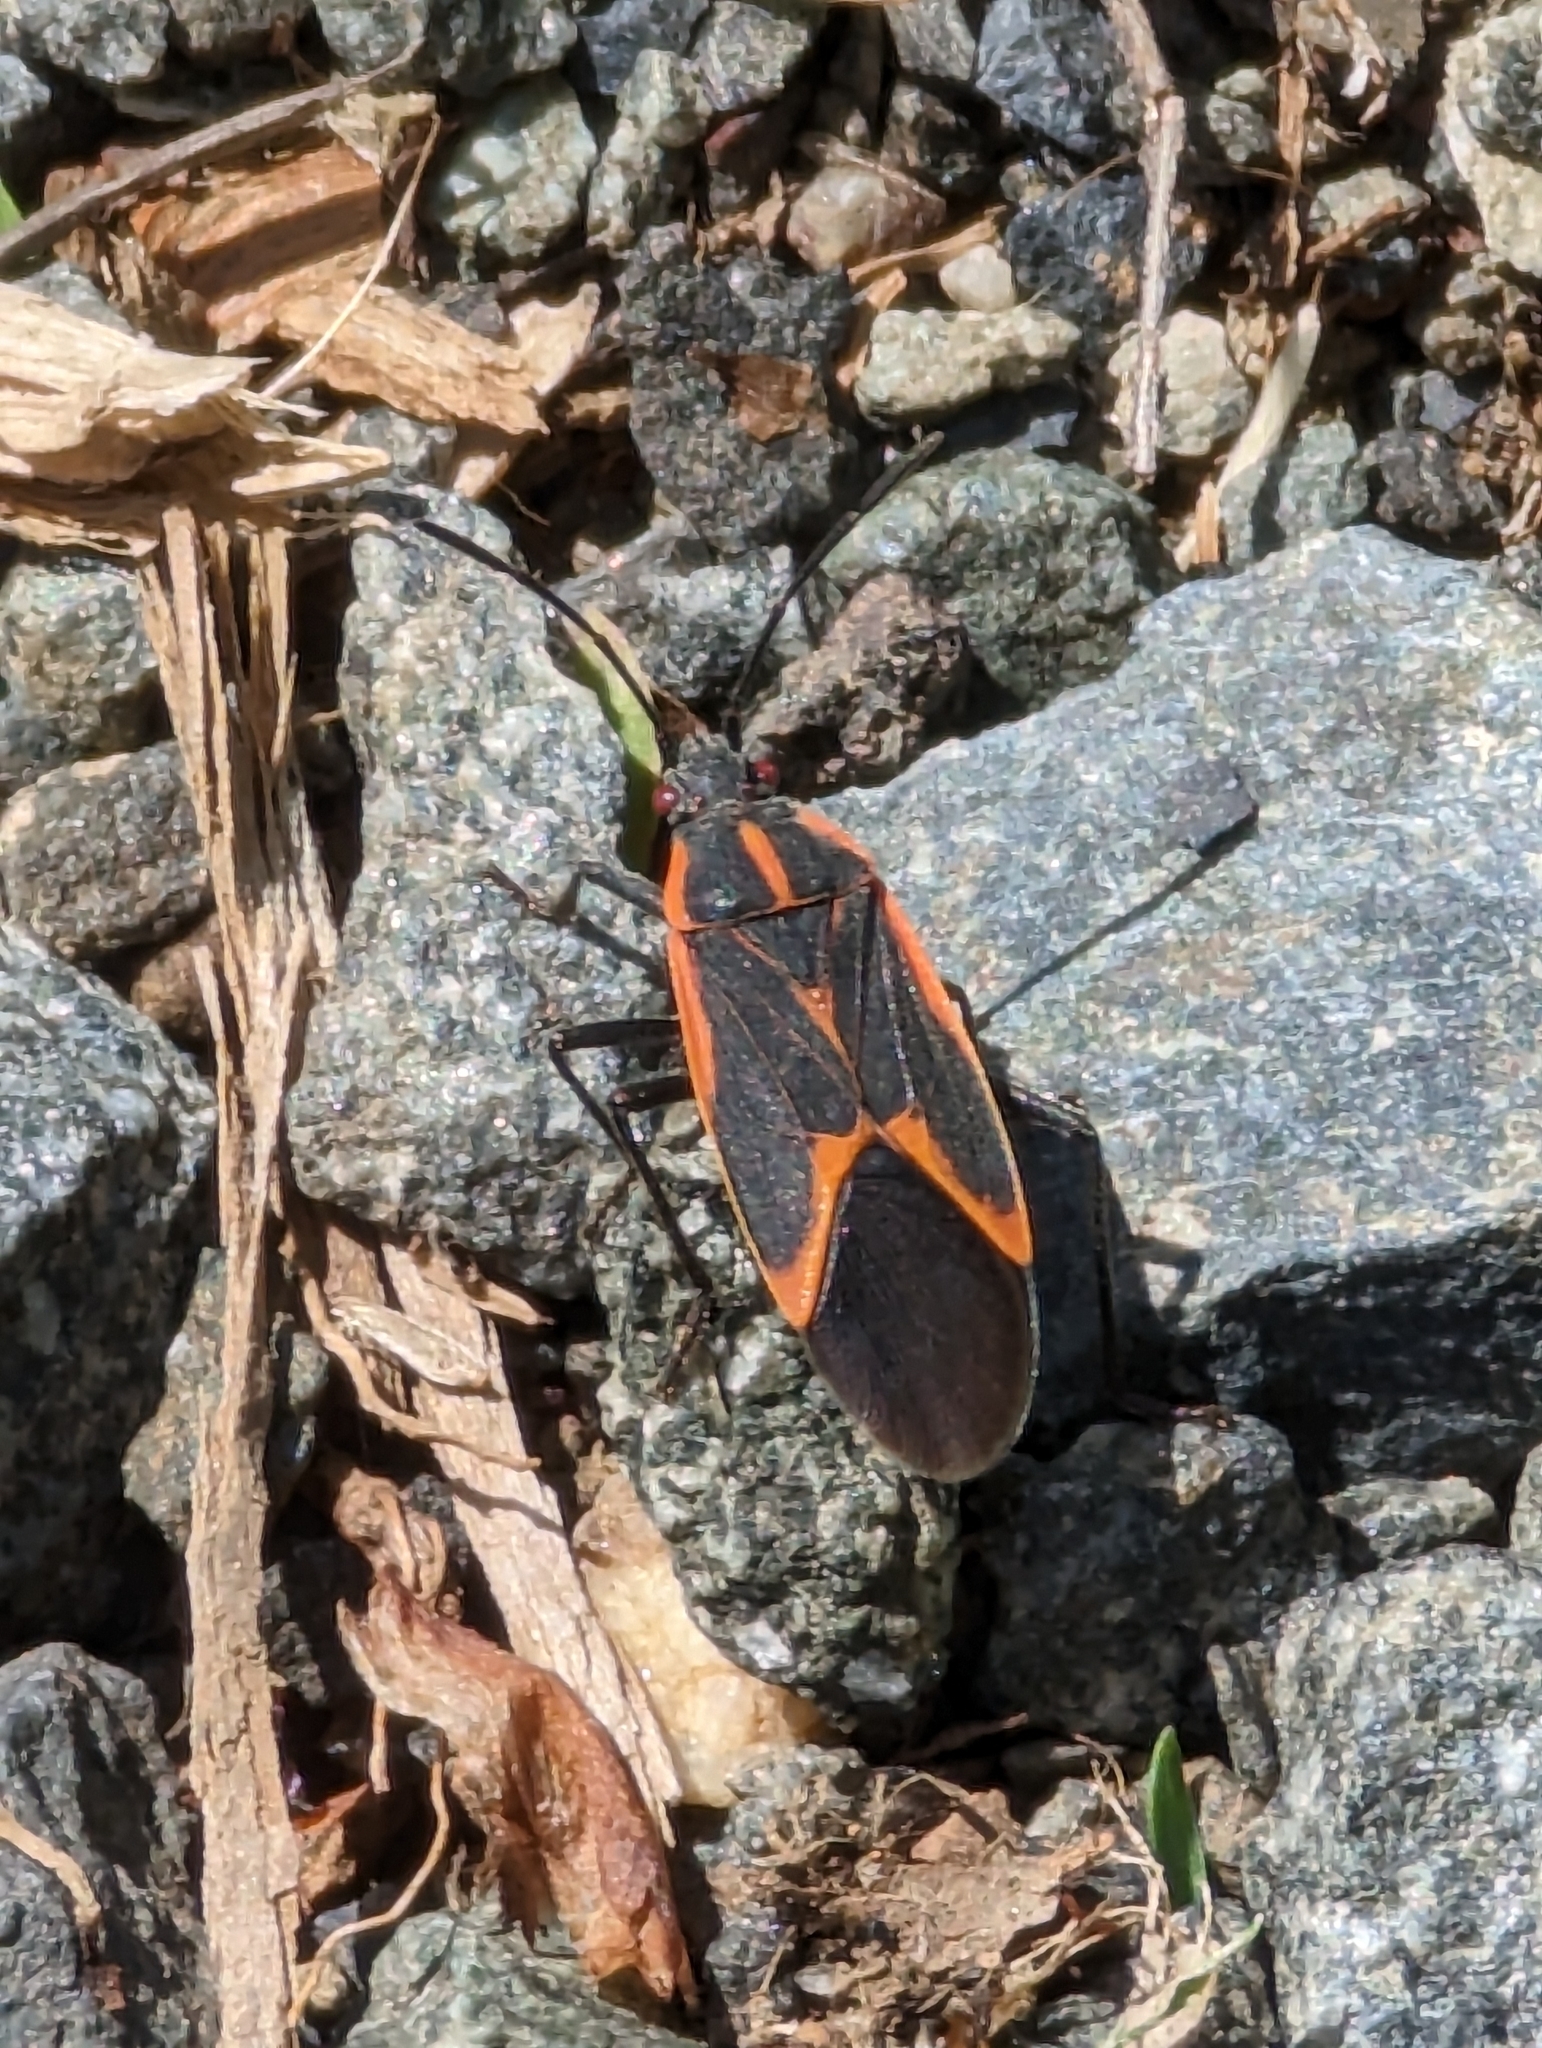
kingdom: Animalia
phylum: Arthropoda
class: Insecta
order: Hemiptera
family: Rhopalidae
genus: Boisea
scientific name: Boisea trivittata
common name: Boxelder bug
